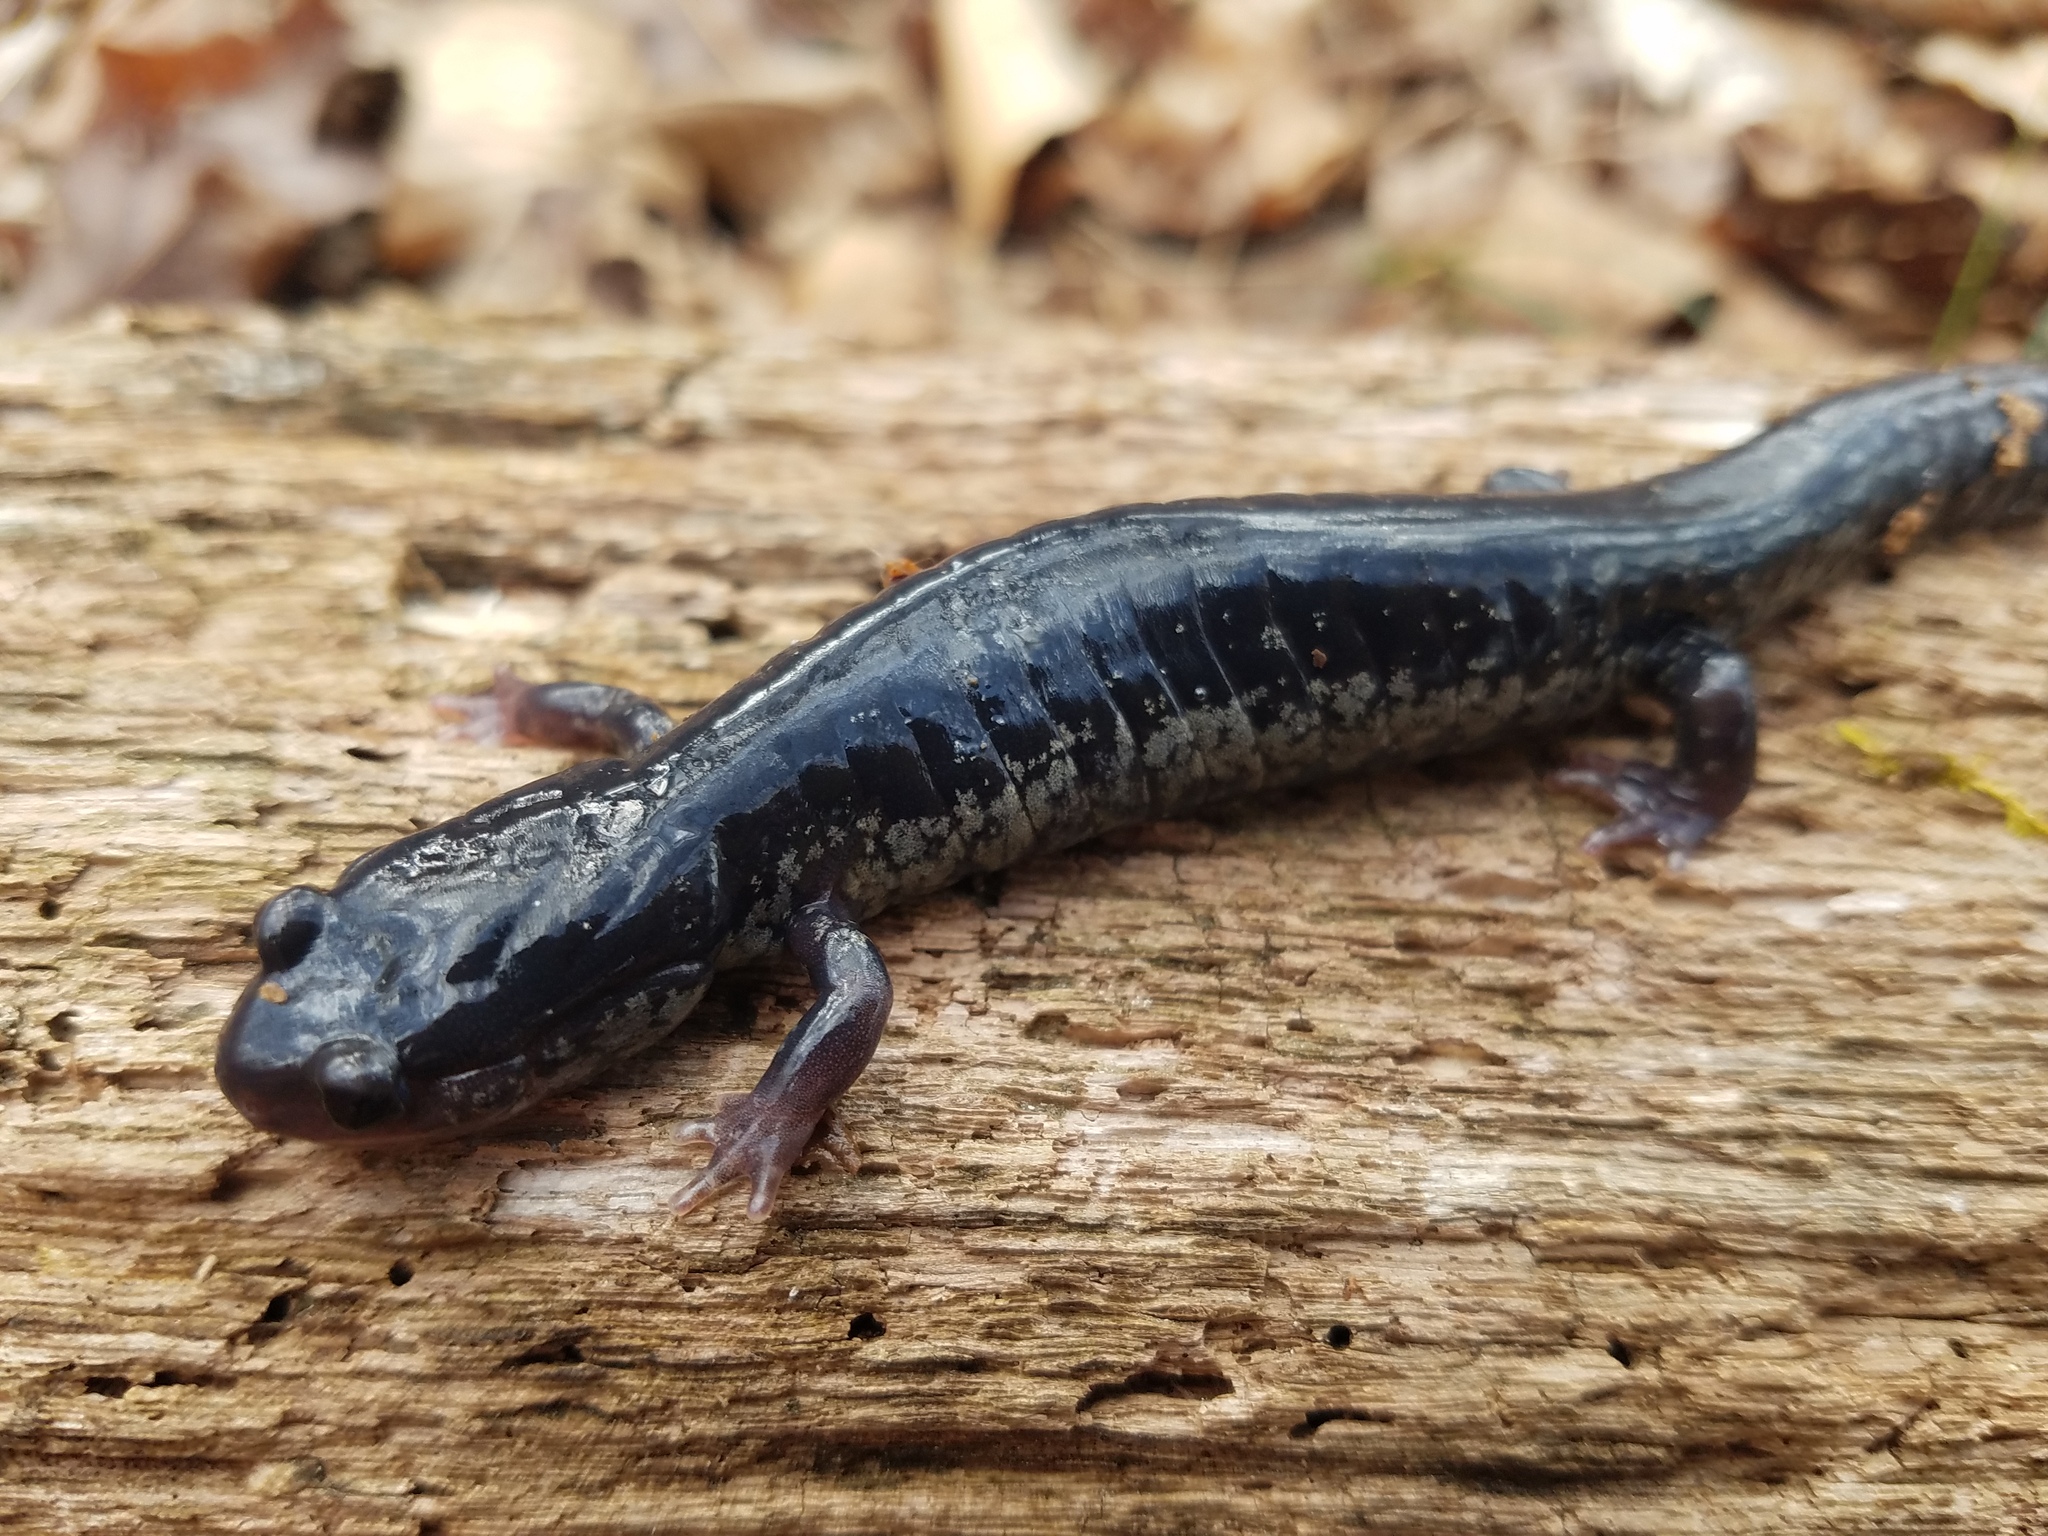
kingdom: Animalia
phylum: Chordata
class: Amphibia
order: Caudata
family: Plethodontidae
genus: Plethodon
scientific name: Plethodon glutinosus
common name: Northern slimy salamander
